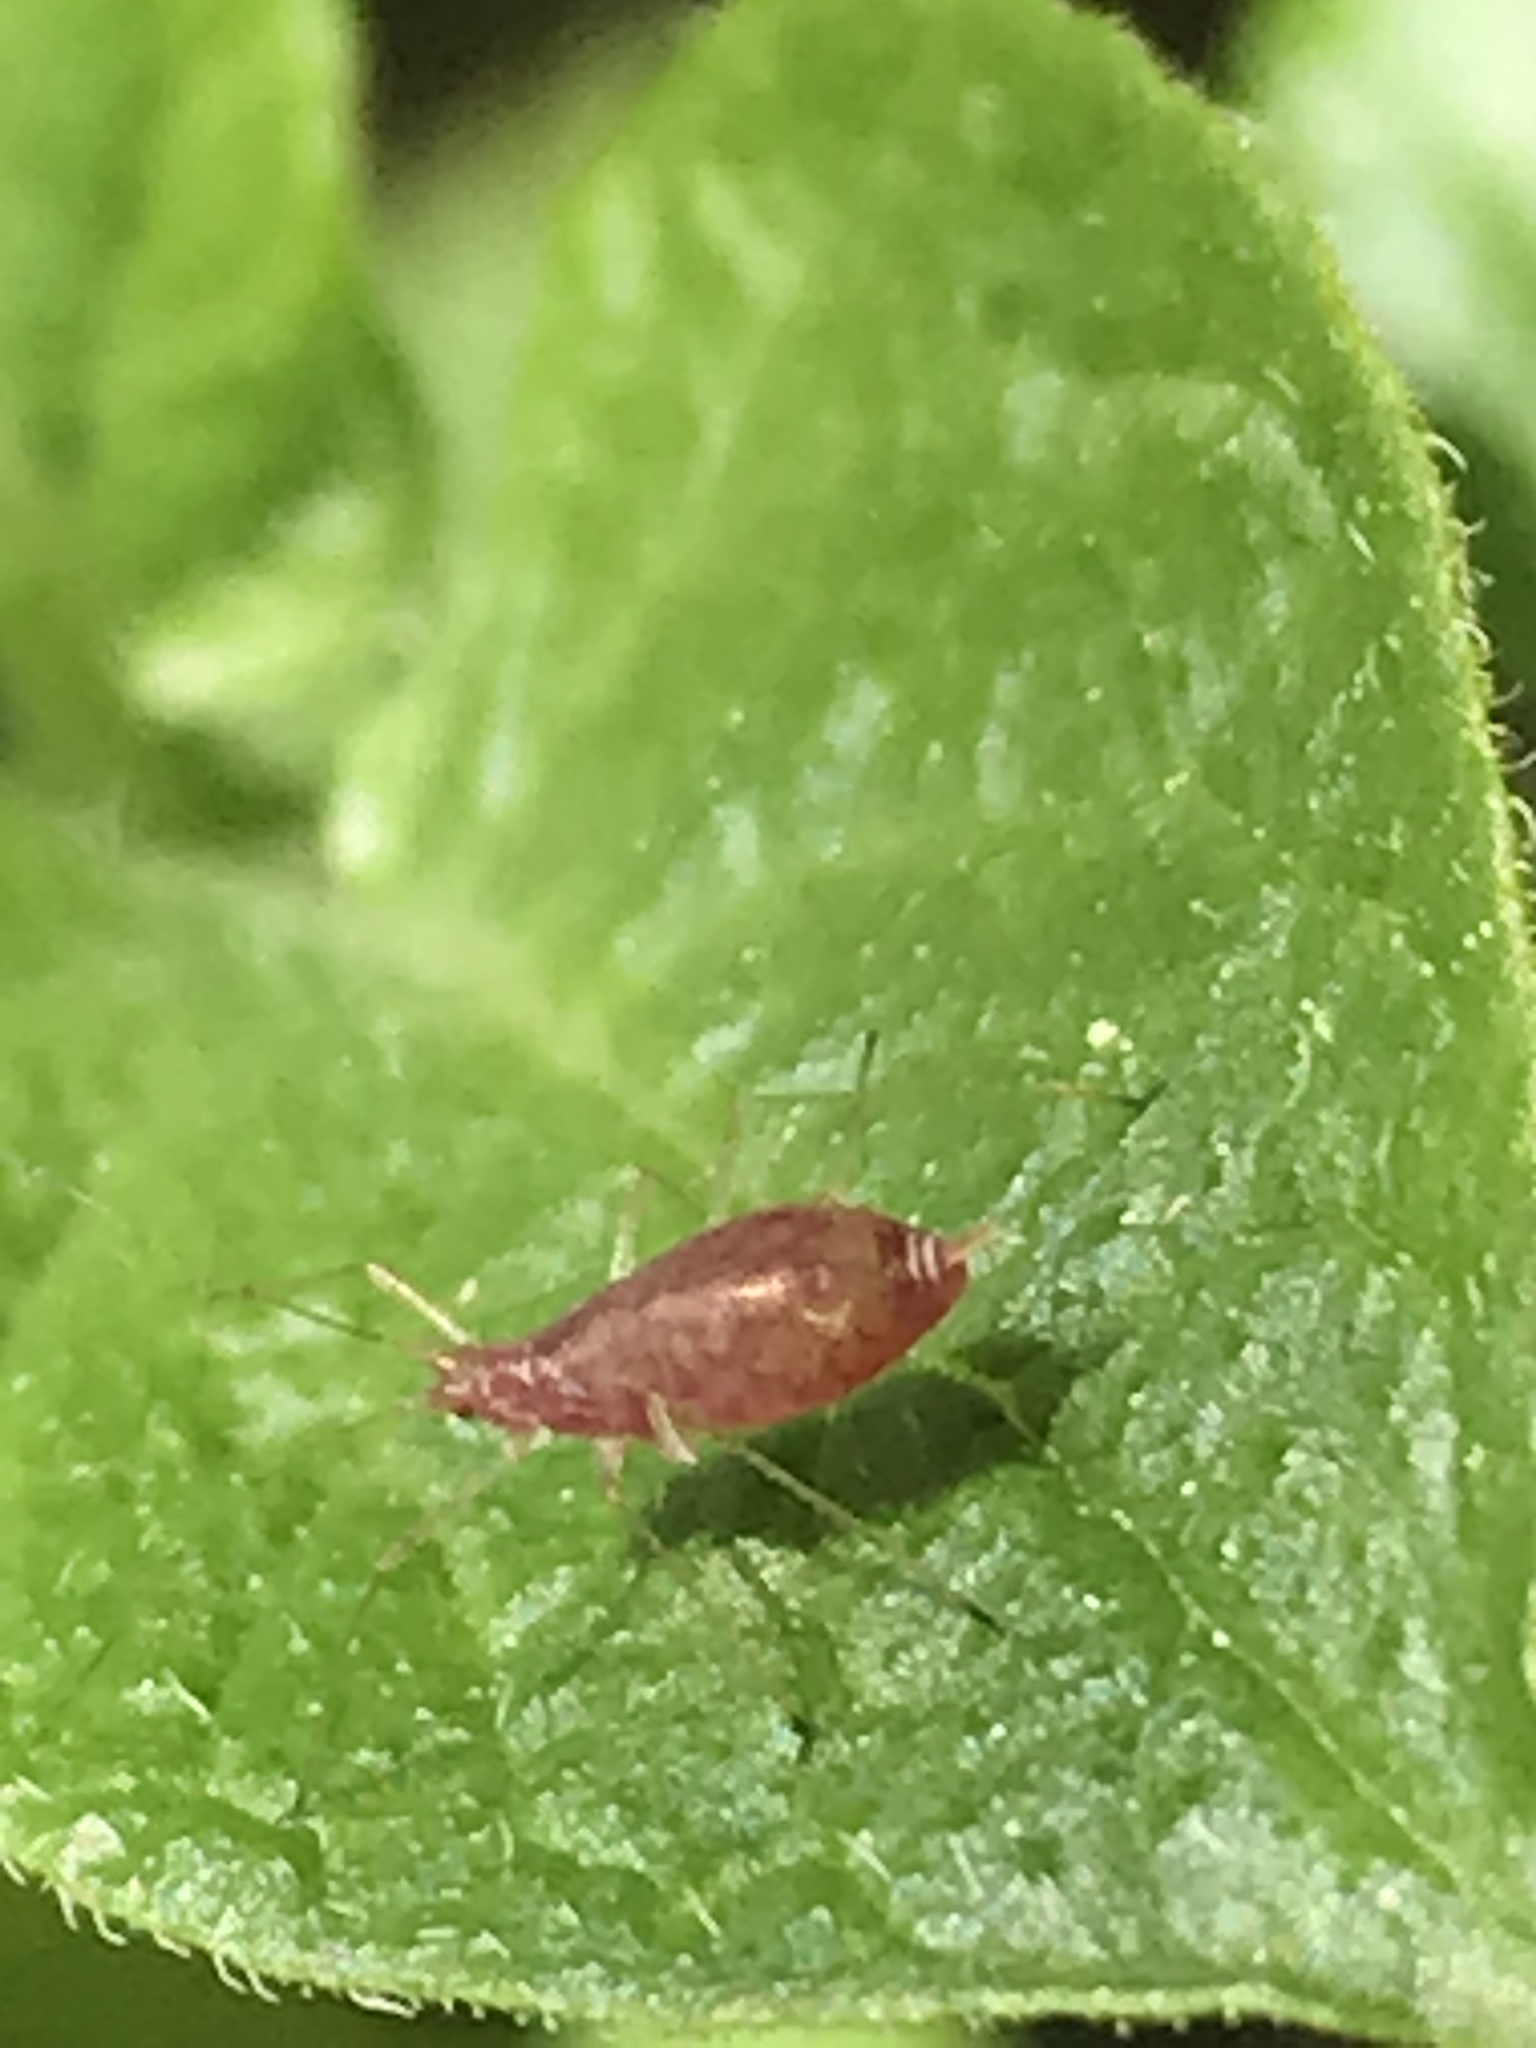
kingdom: Animalia
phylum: Arthropoda
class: Insecta
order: Hemiptera
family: Aphididae
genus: Macrosiphum
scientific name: Macrosiphum euphorbiae
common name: Potato aphid
